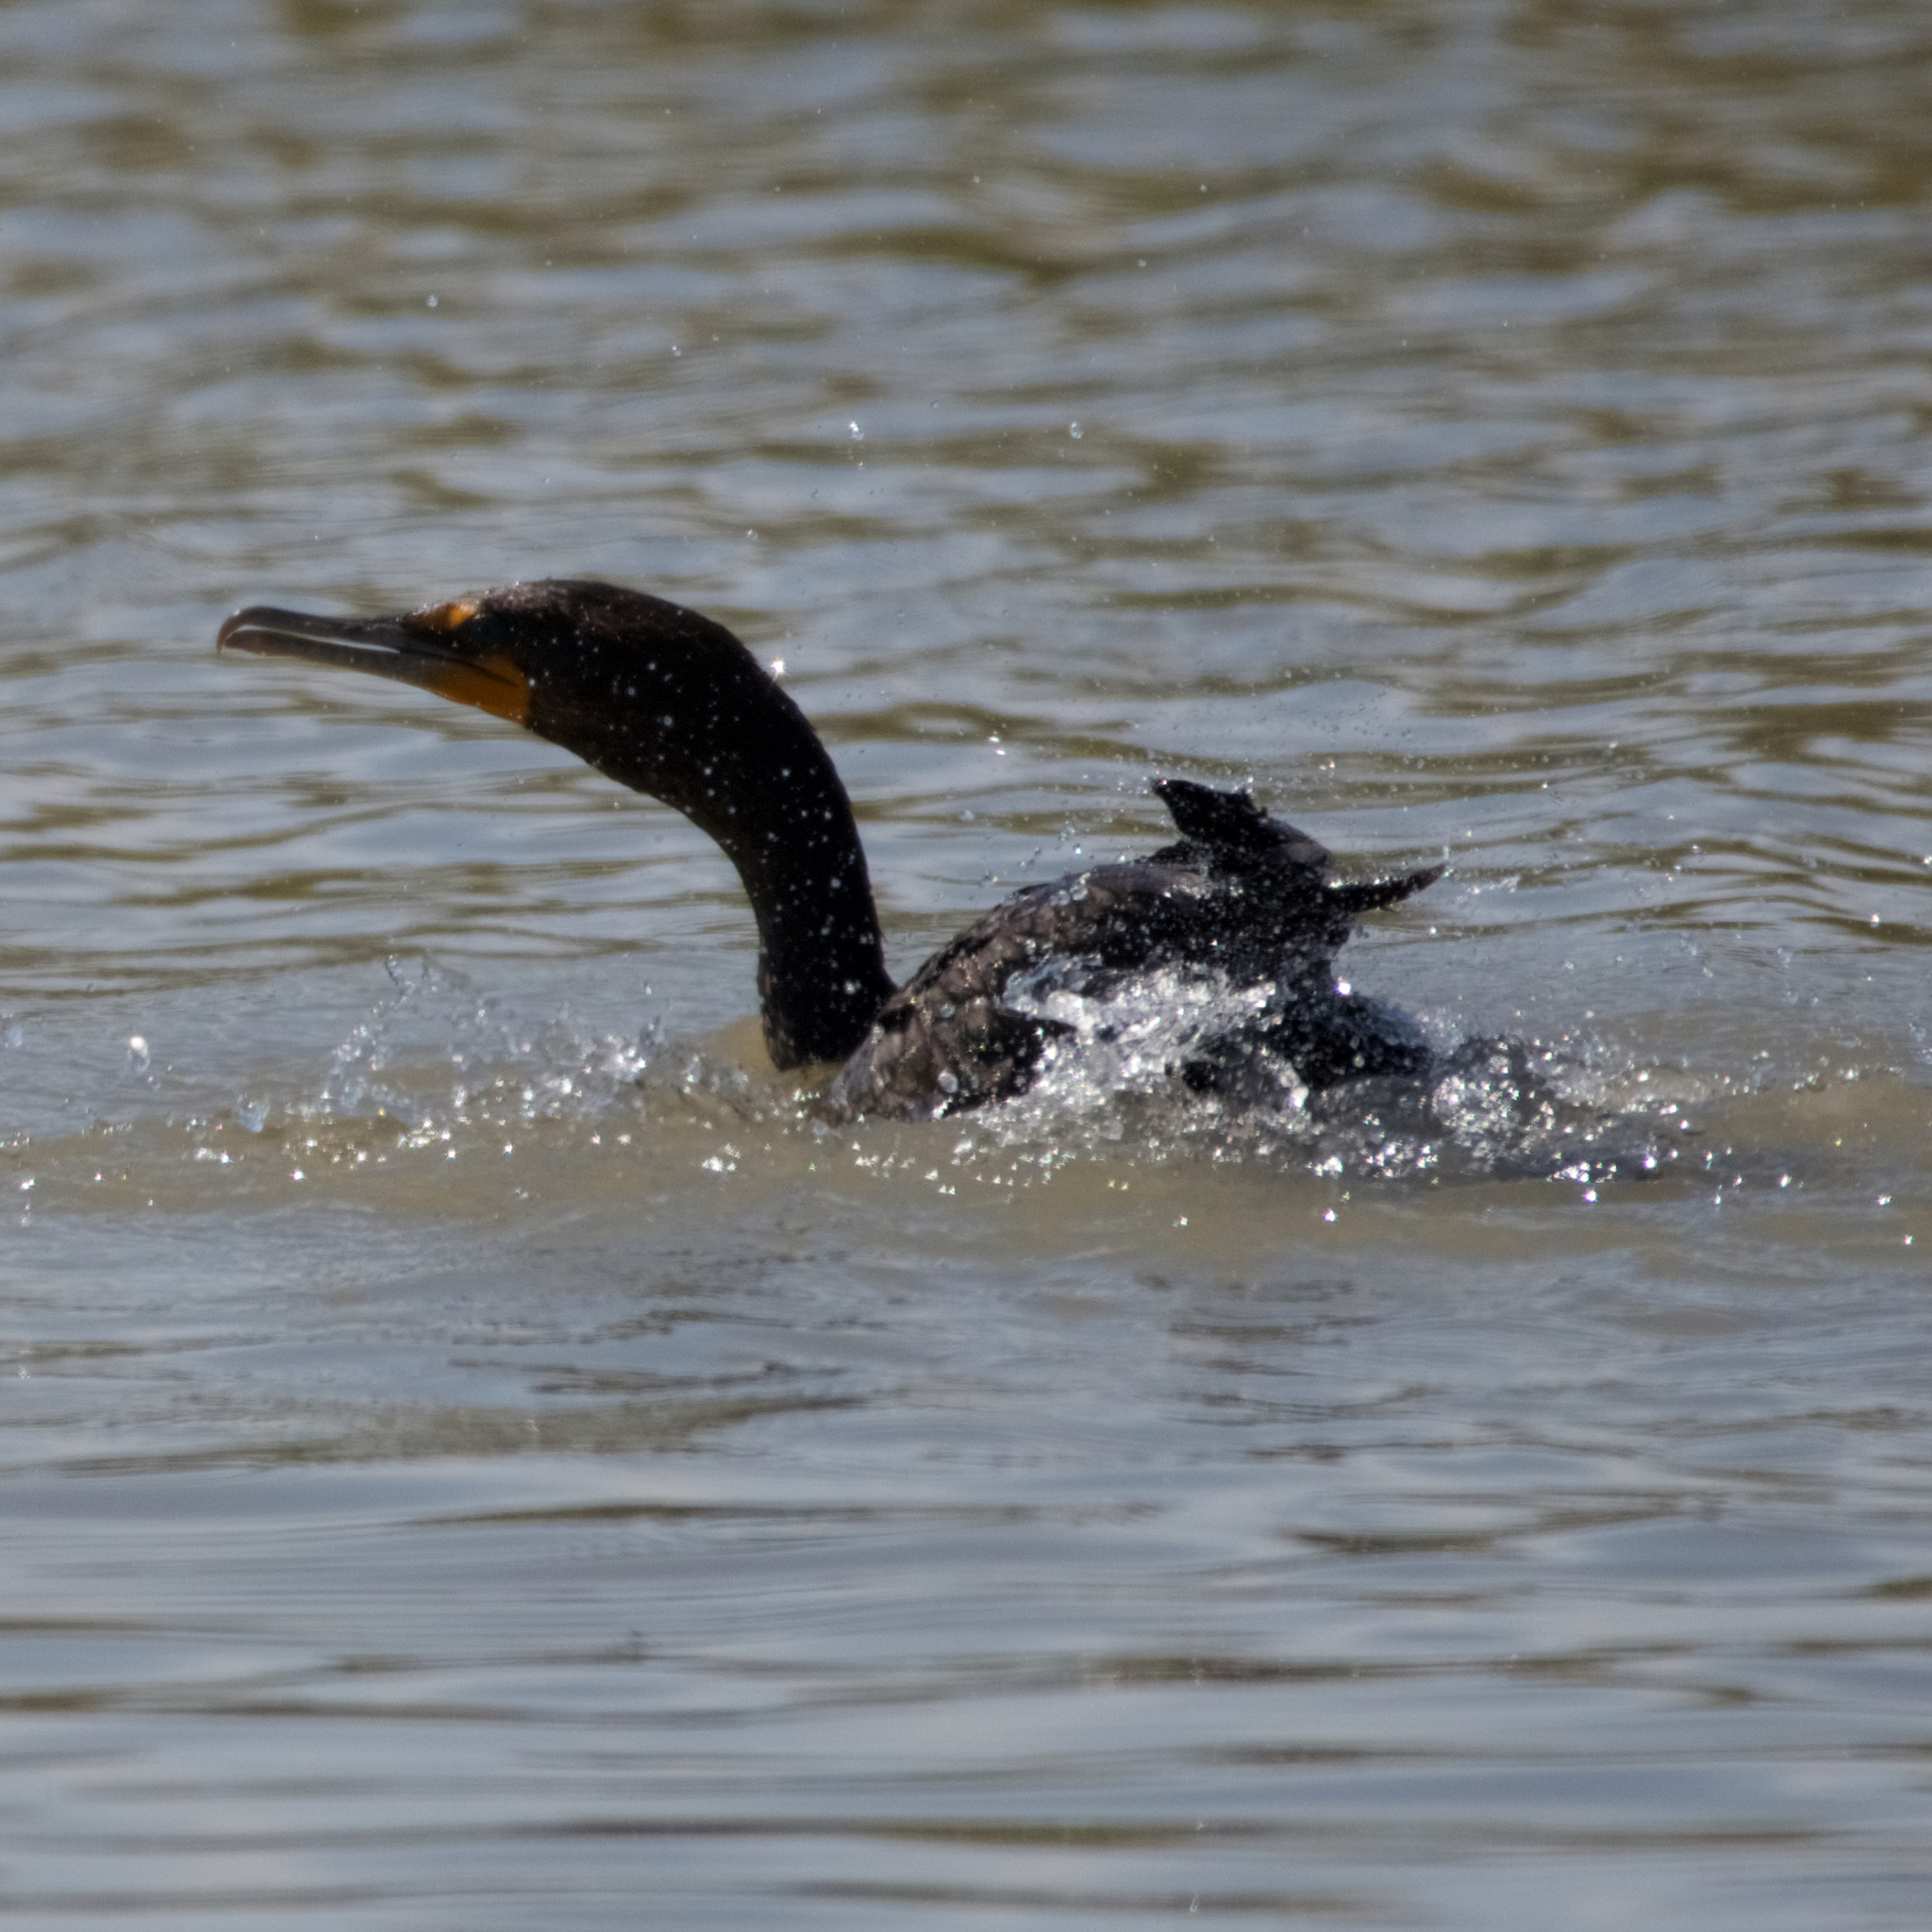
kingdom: Animalia
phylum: Chordata
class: Aves
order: Suliformes
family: Phalacrocoracidae
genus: Phalacrocorax
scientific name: Phalacrocorax auritus
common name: Double-crested cormorant
